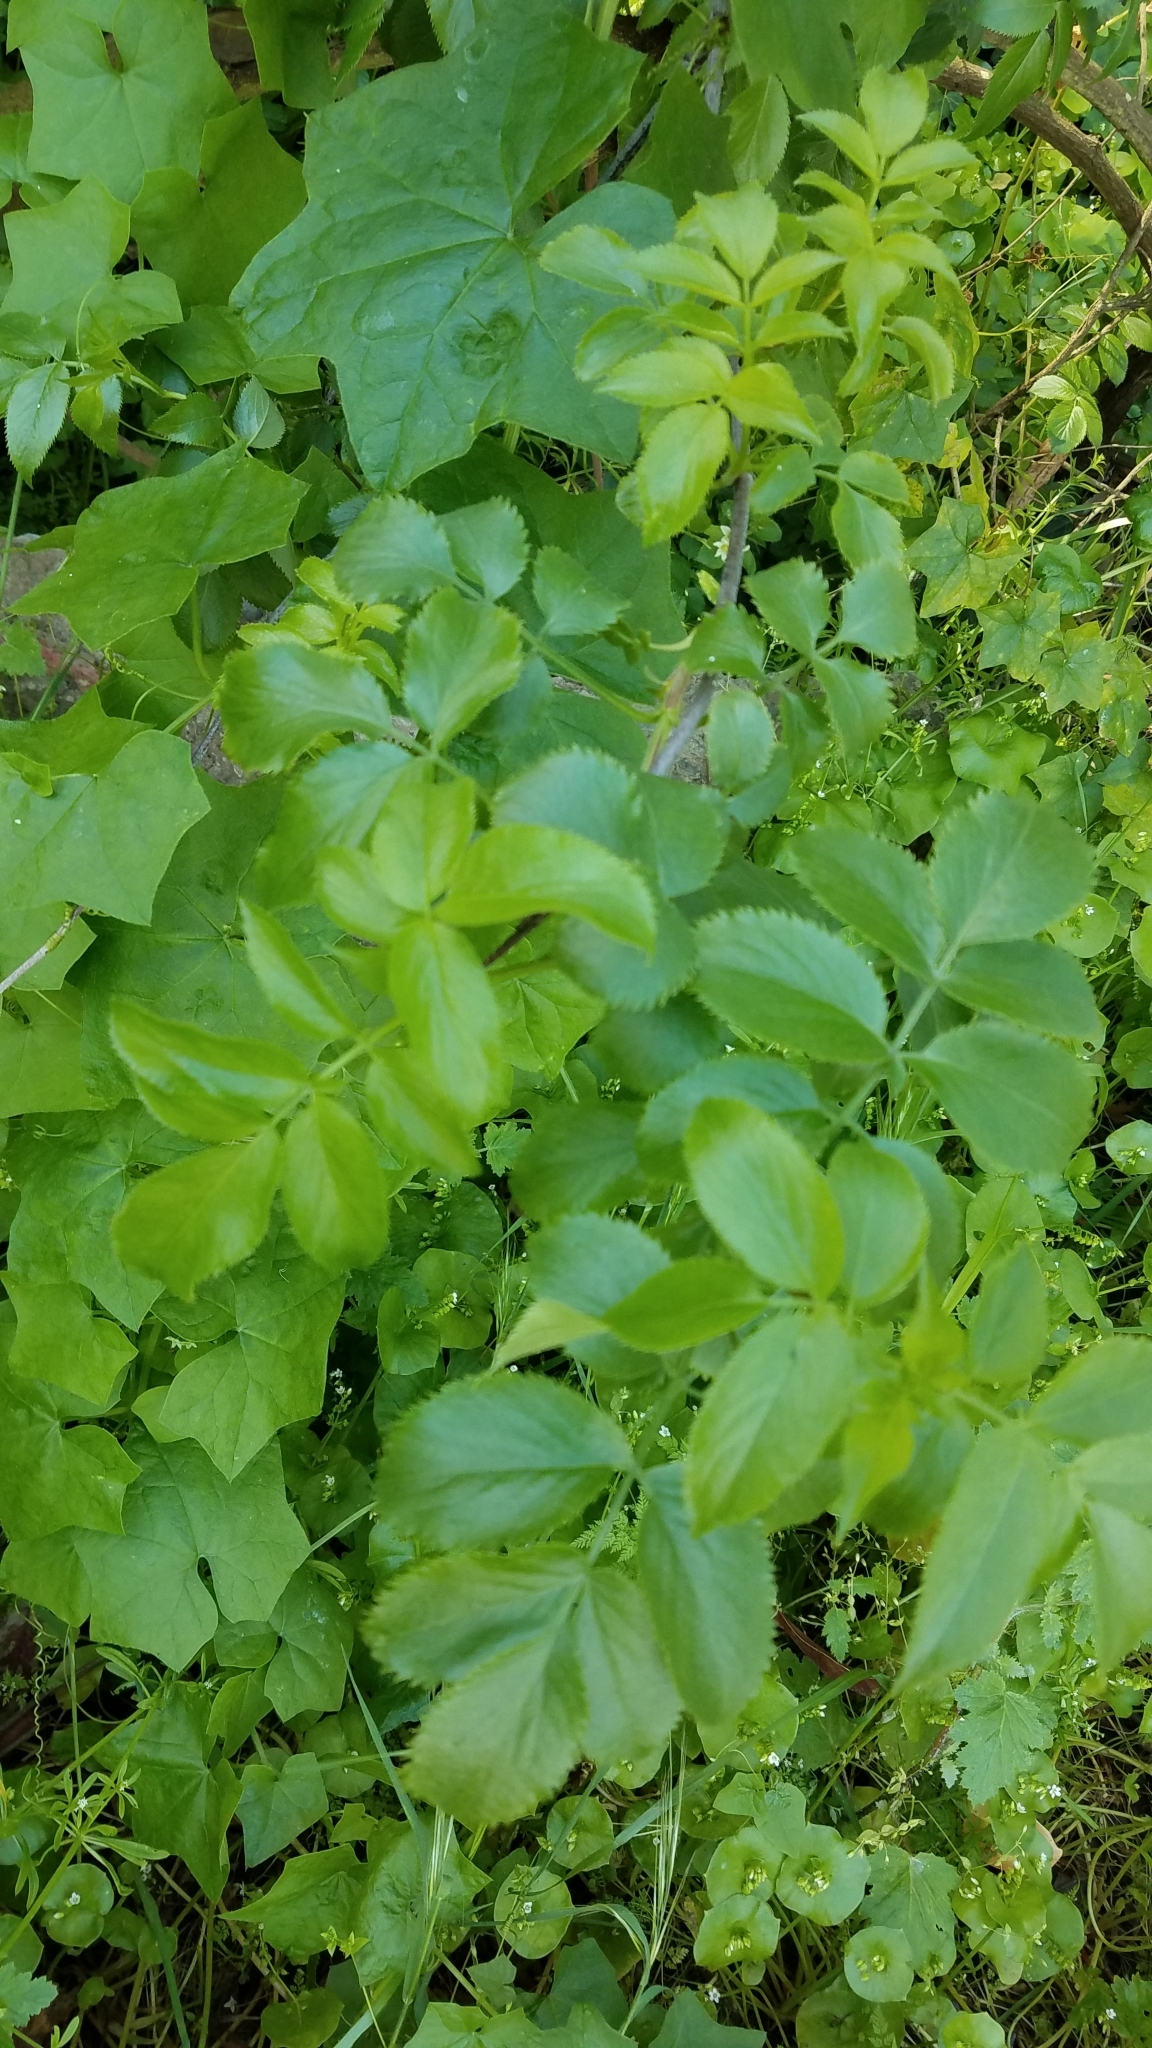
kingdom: Plantae
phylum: Tracheophyta
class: Magnoliopsida
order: Dipsacales
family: Viburnaceae
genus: Sambucus
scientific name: Sambucus cerulea
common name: Blue elder
